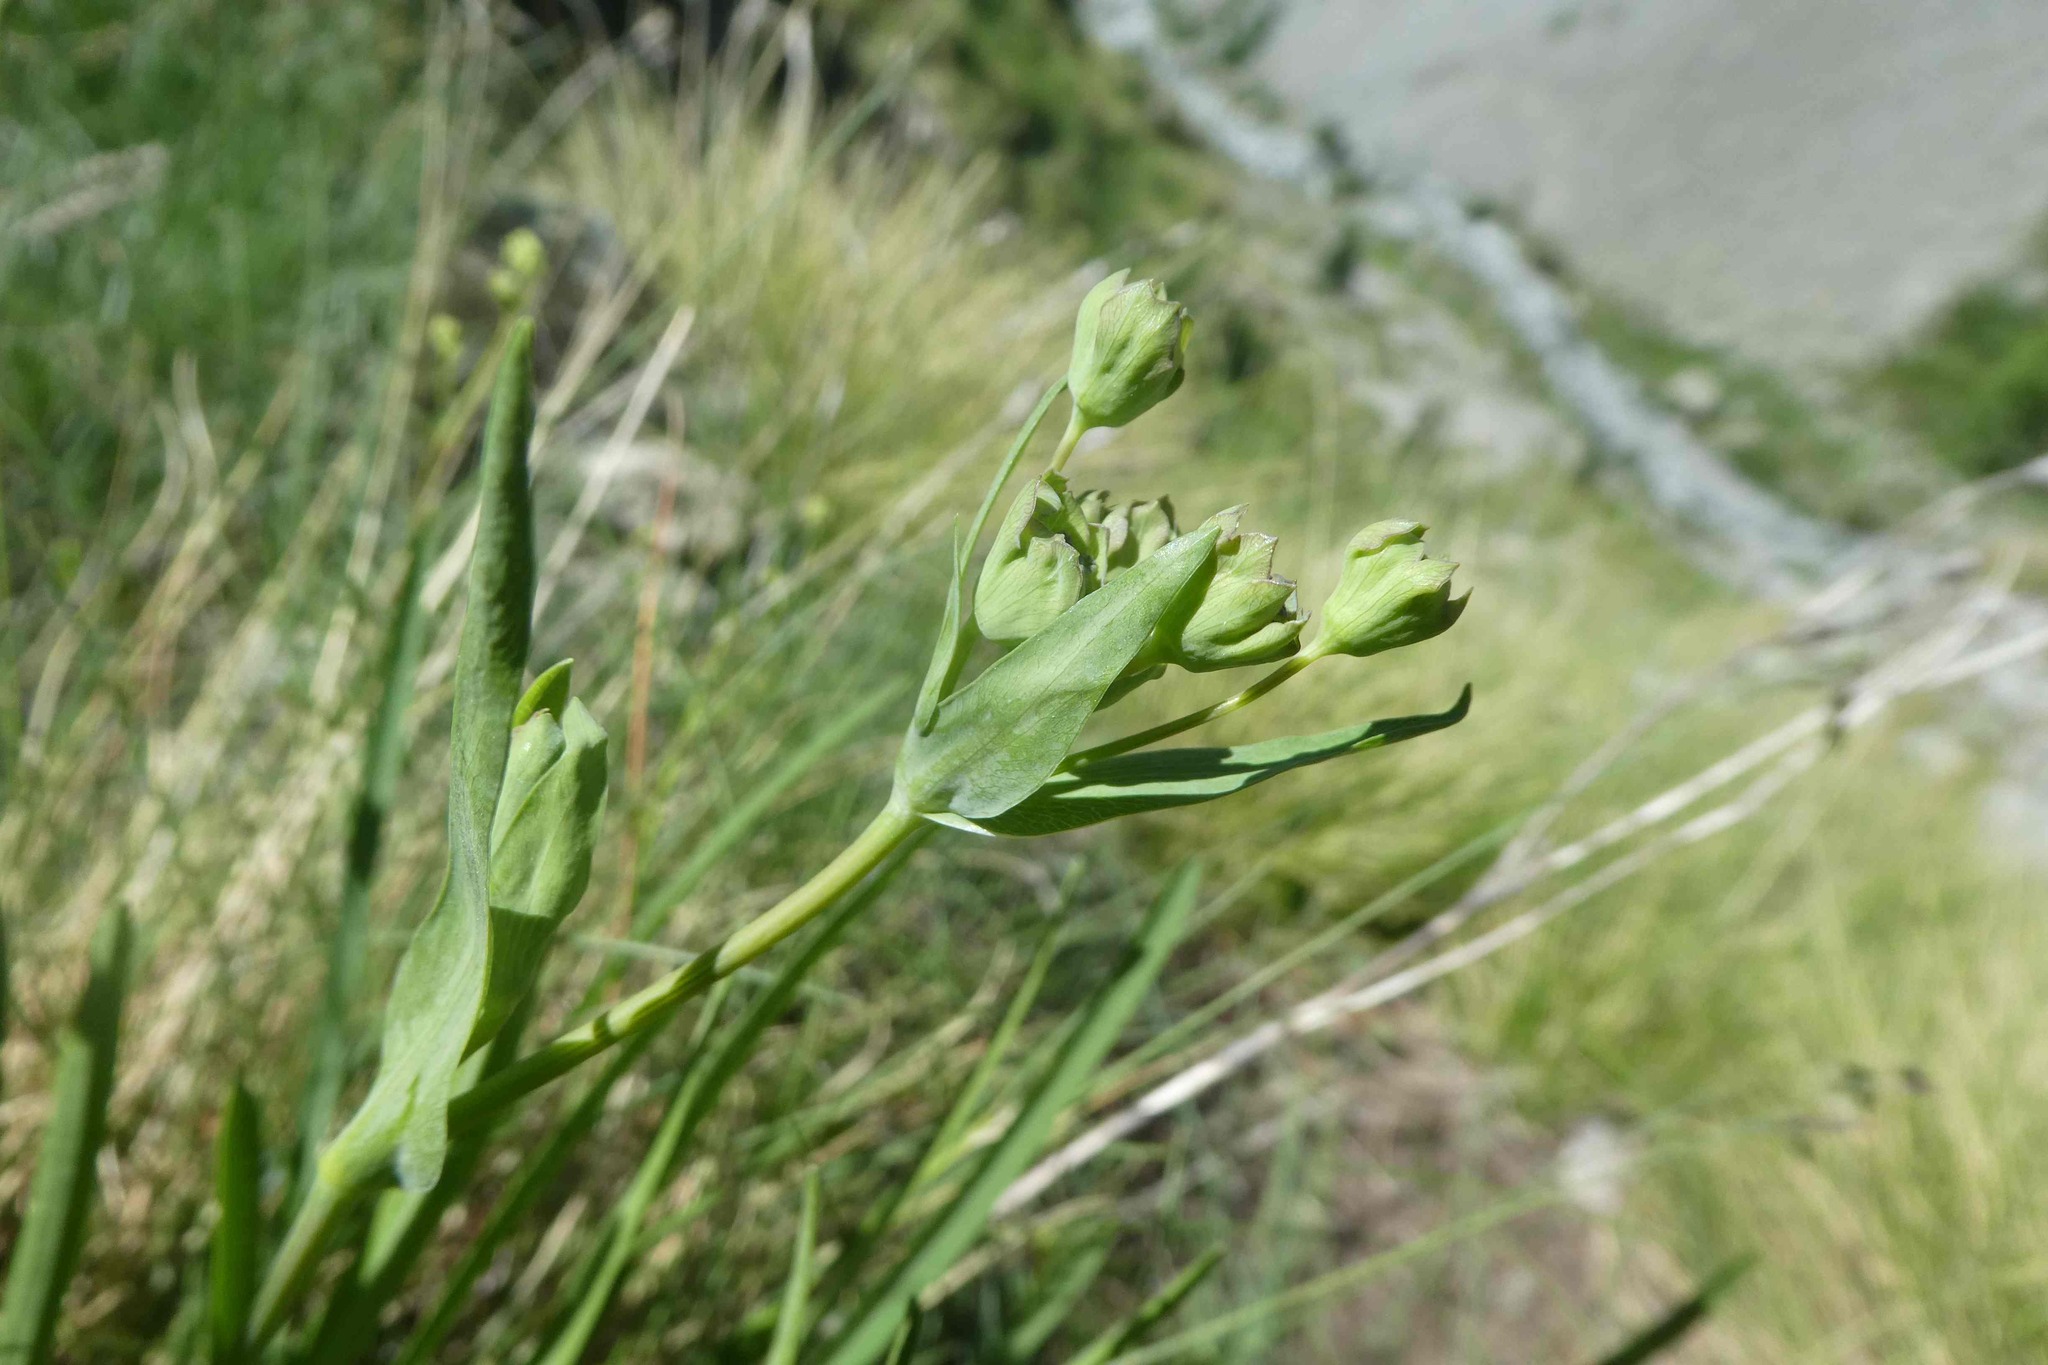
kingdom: Plantae
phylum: Tracheophyta
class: Magnoliopsida
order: Apiales
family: Apiaceae
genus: Bupleurum
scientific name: Bupleurum stellatum
